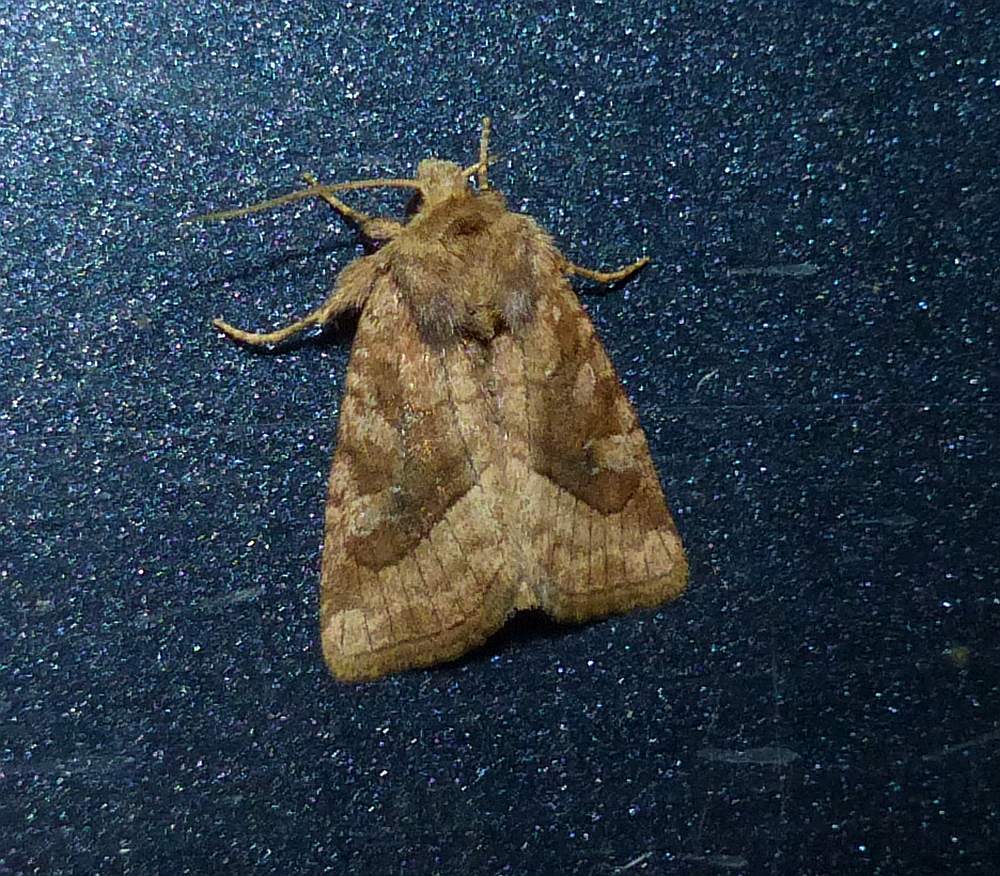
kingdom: Animalia
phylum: Arthropoda
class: Insecta
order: Lepidoptera
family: Noctuidae
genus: Lacinipolia
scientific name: Lacinipolia lorea
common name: Bridled arches moth
